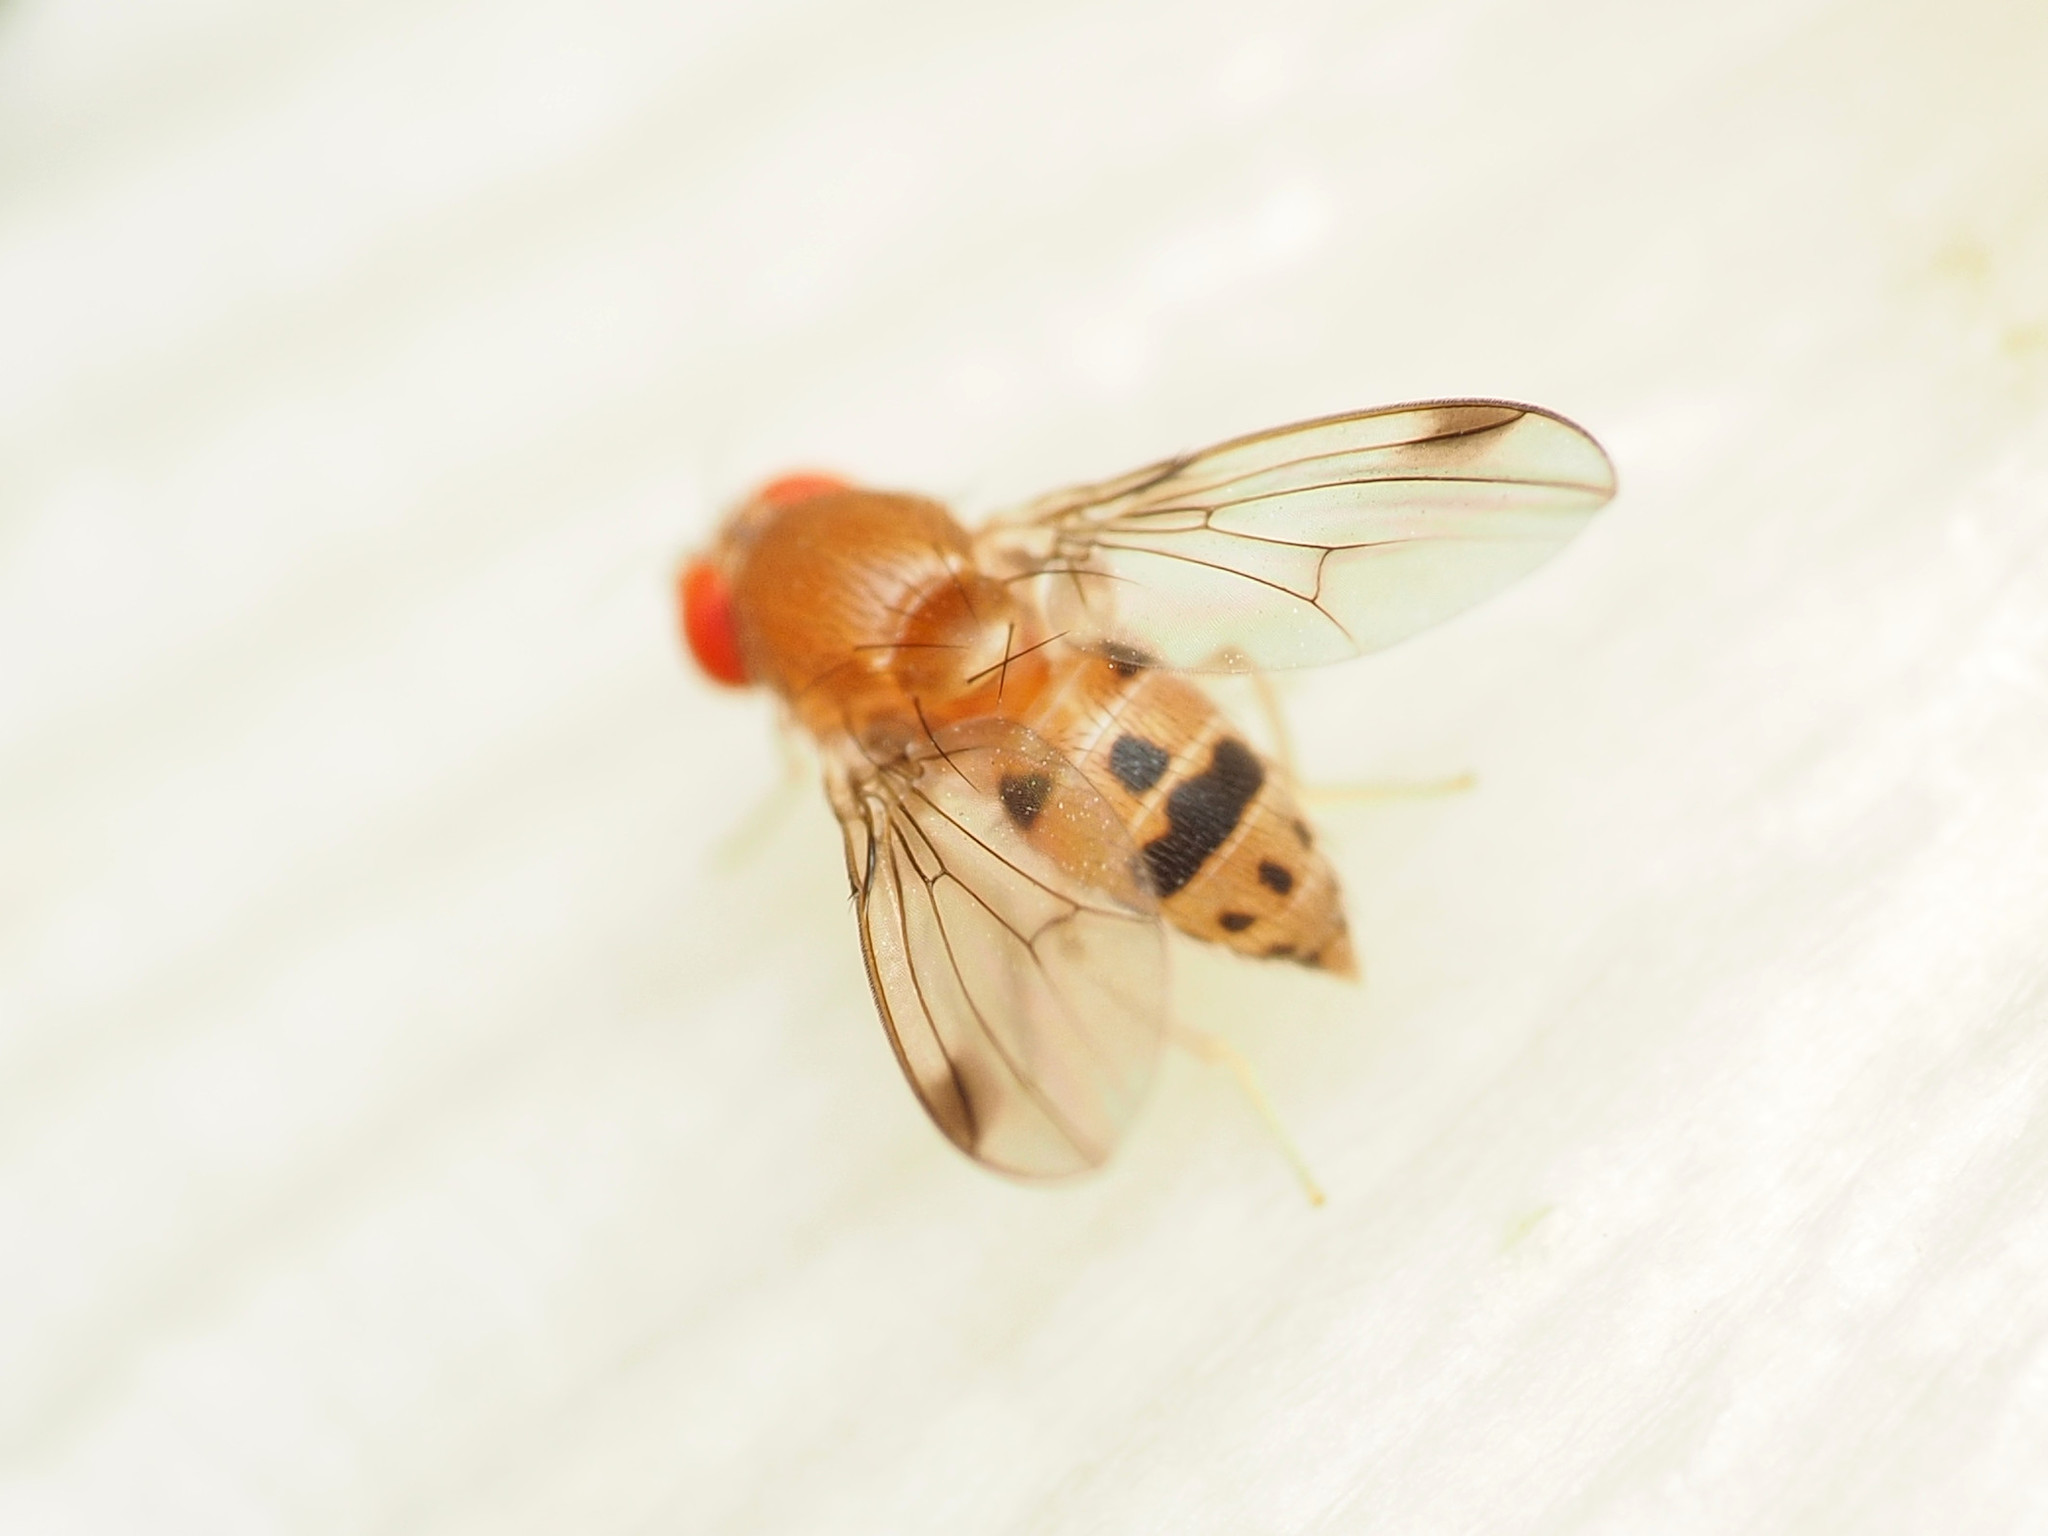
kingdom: Animalia
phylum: Arthropoda
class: Insecta
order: Diptera
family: Drosophilidae
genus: Leucophenga
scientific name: Leucophenga varia
